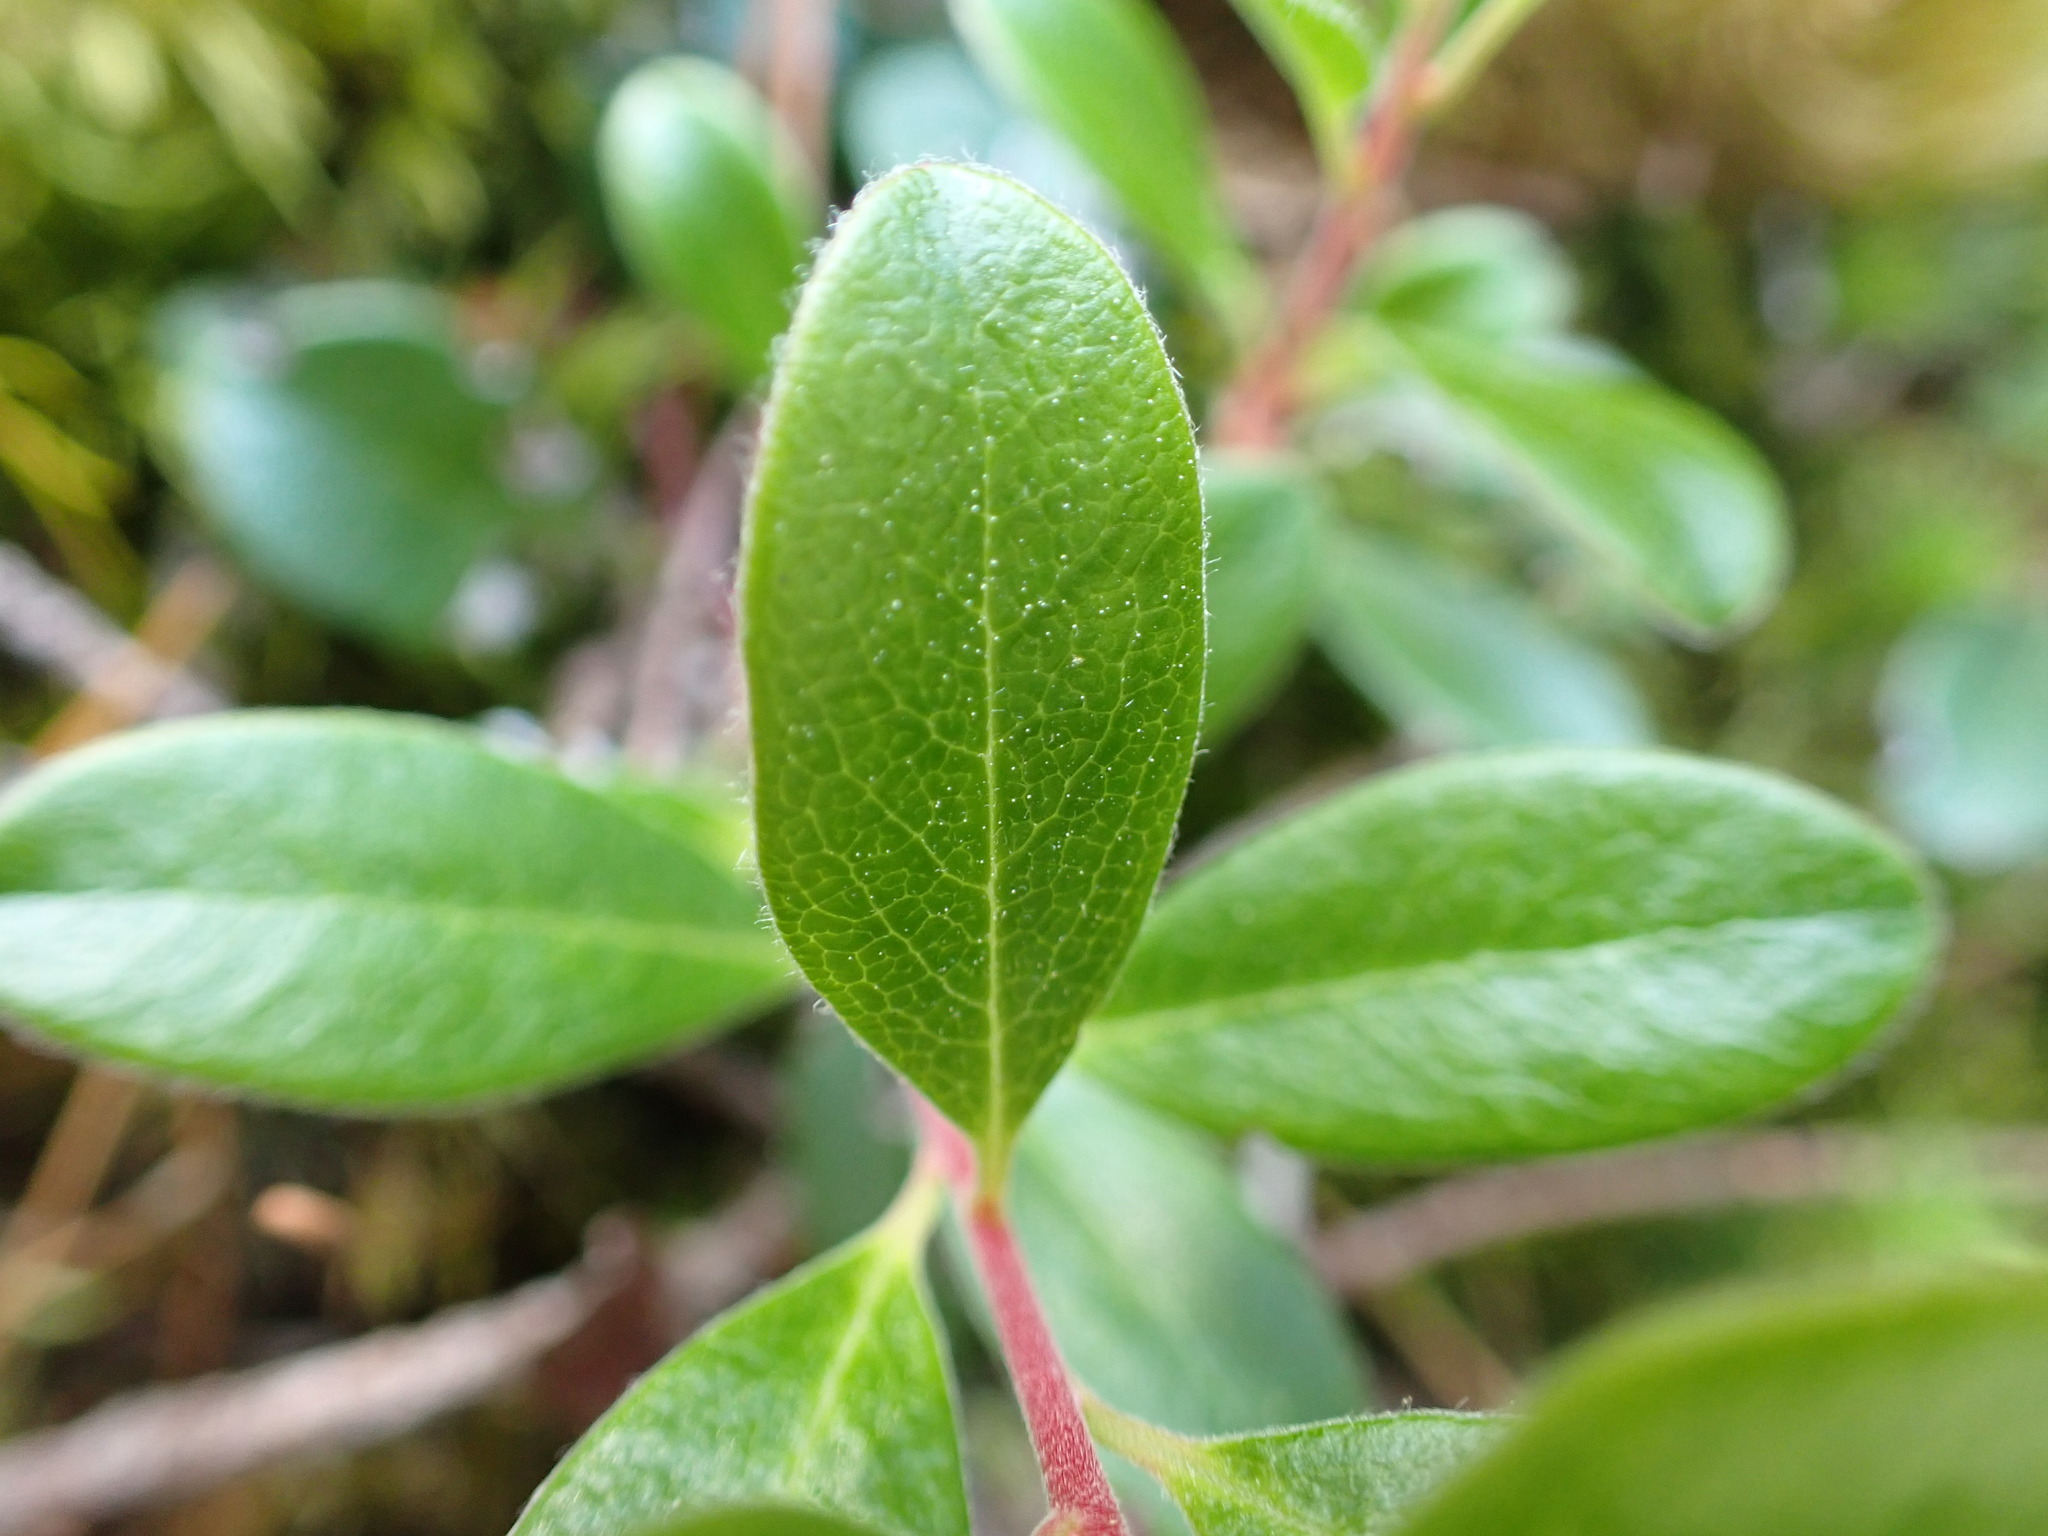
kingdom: Plantae
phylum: Tracheophyta
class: Magnoliopsida
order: Ericales
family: Ericaceae
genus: Arctostaphylos
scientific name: Arctostaphylos uva-ursi
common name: Bearberry
